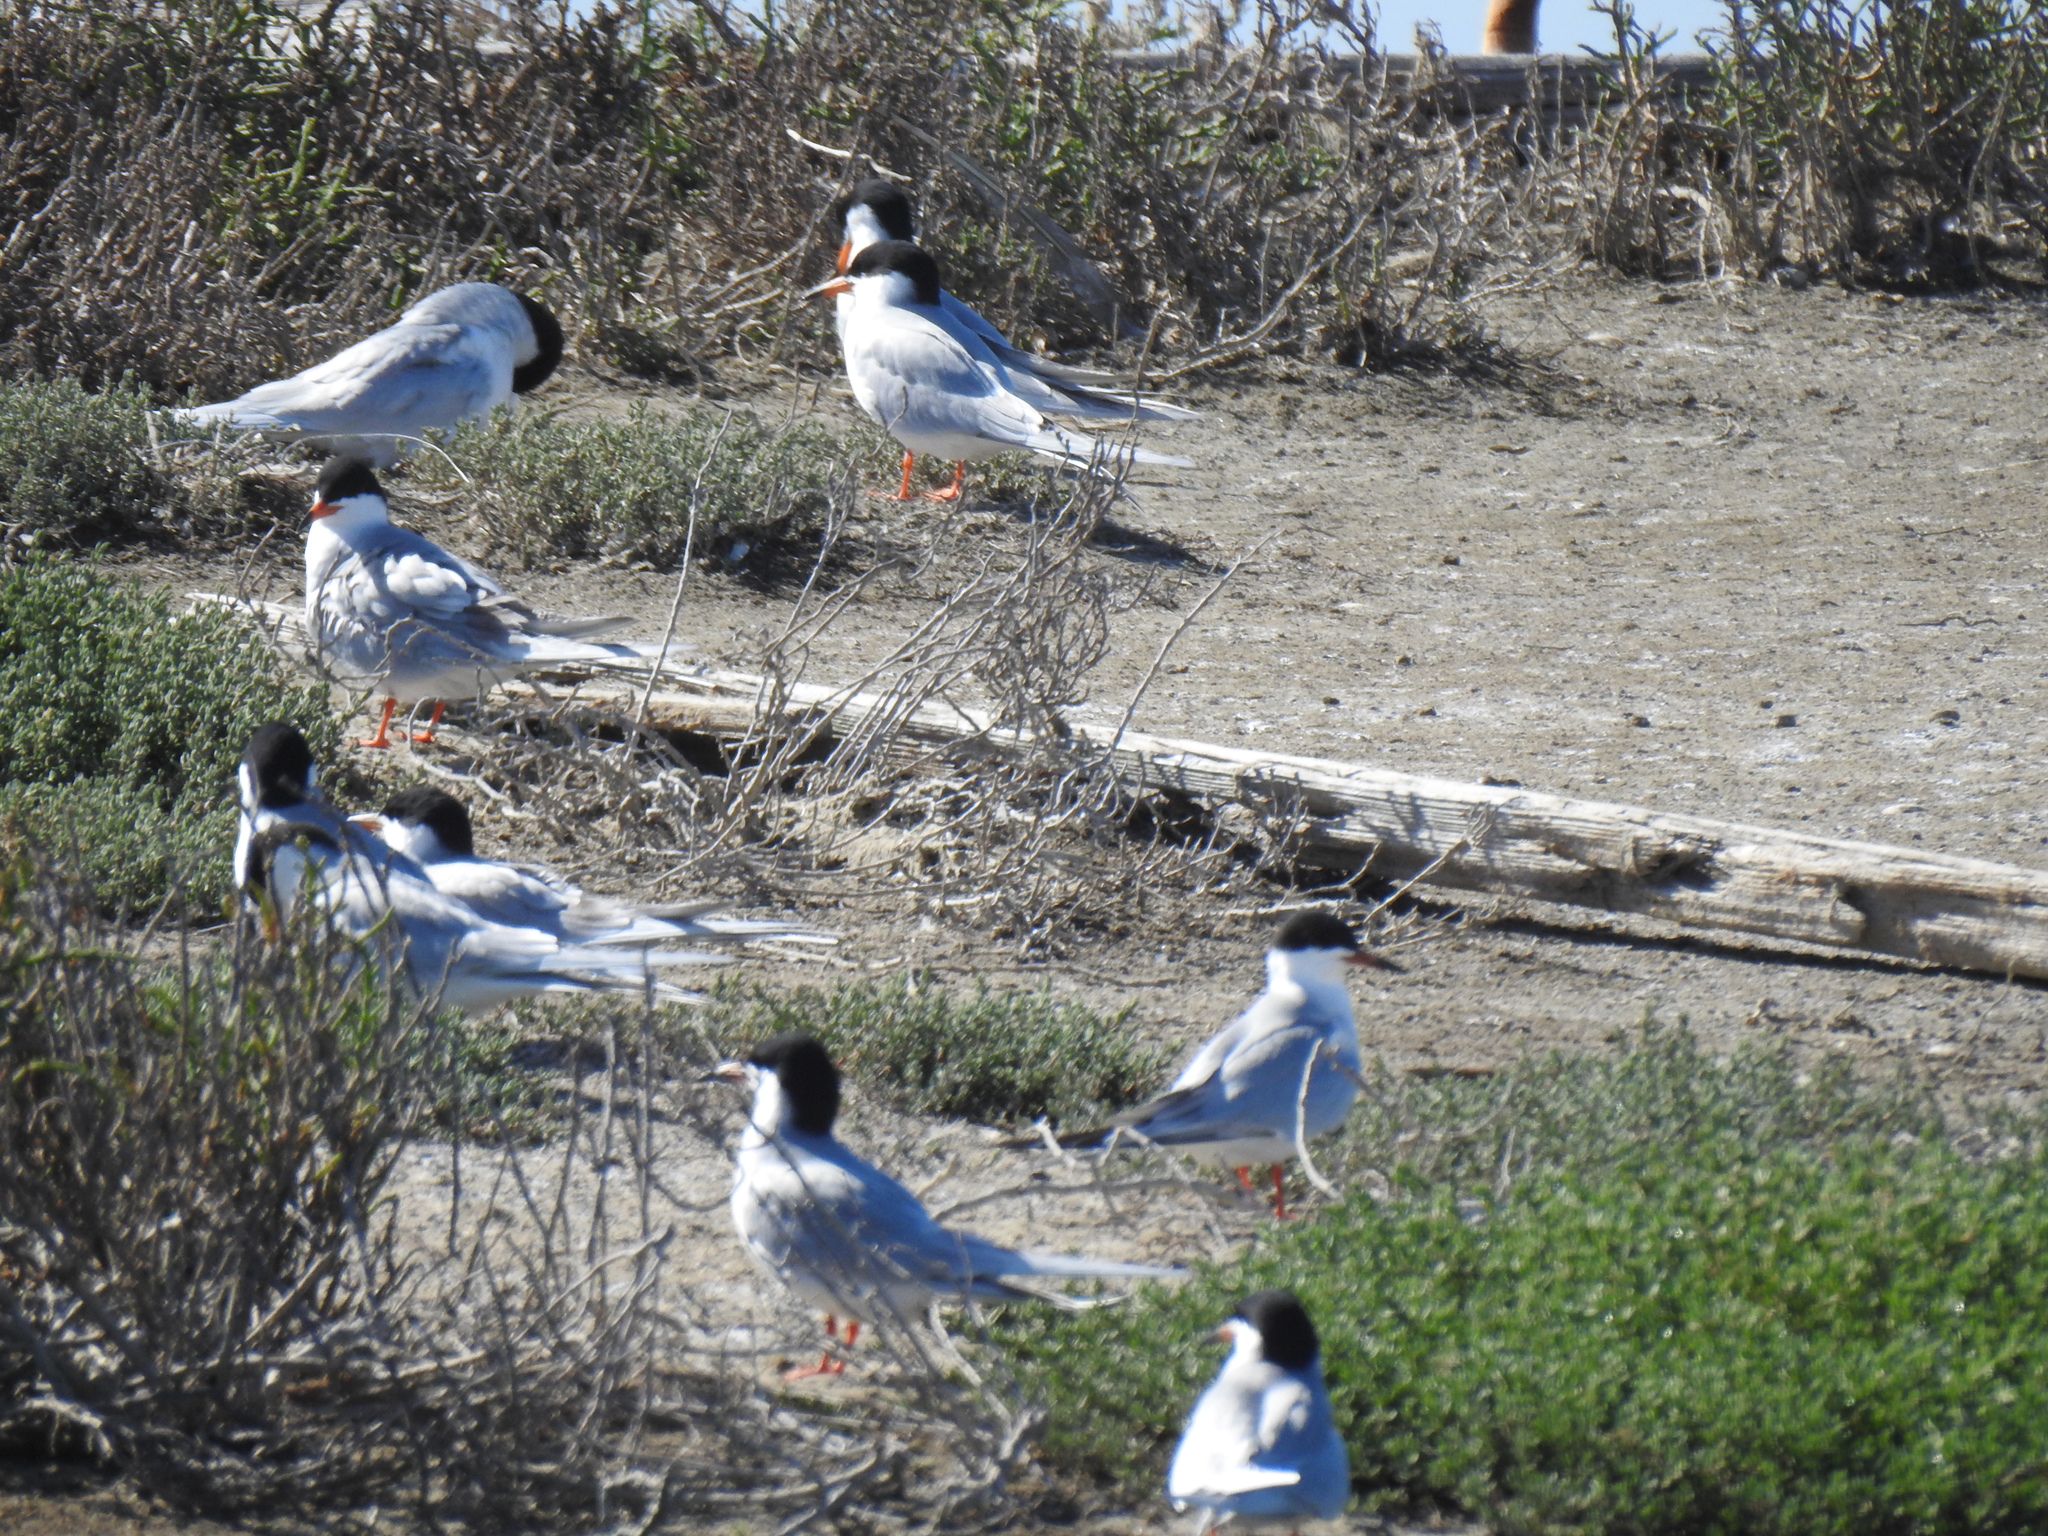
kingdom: Animalia
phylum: Chordata
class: Aves
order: Charadriiformes
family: Laridae
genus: Sterna
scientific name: Sterna forsteri
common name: Forster's tern
